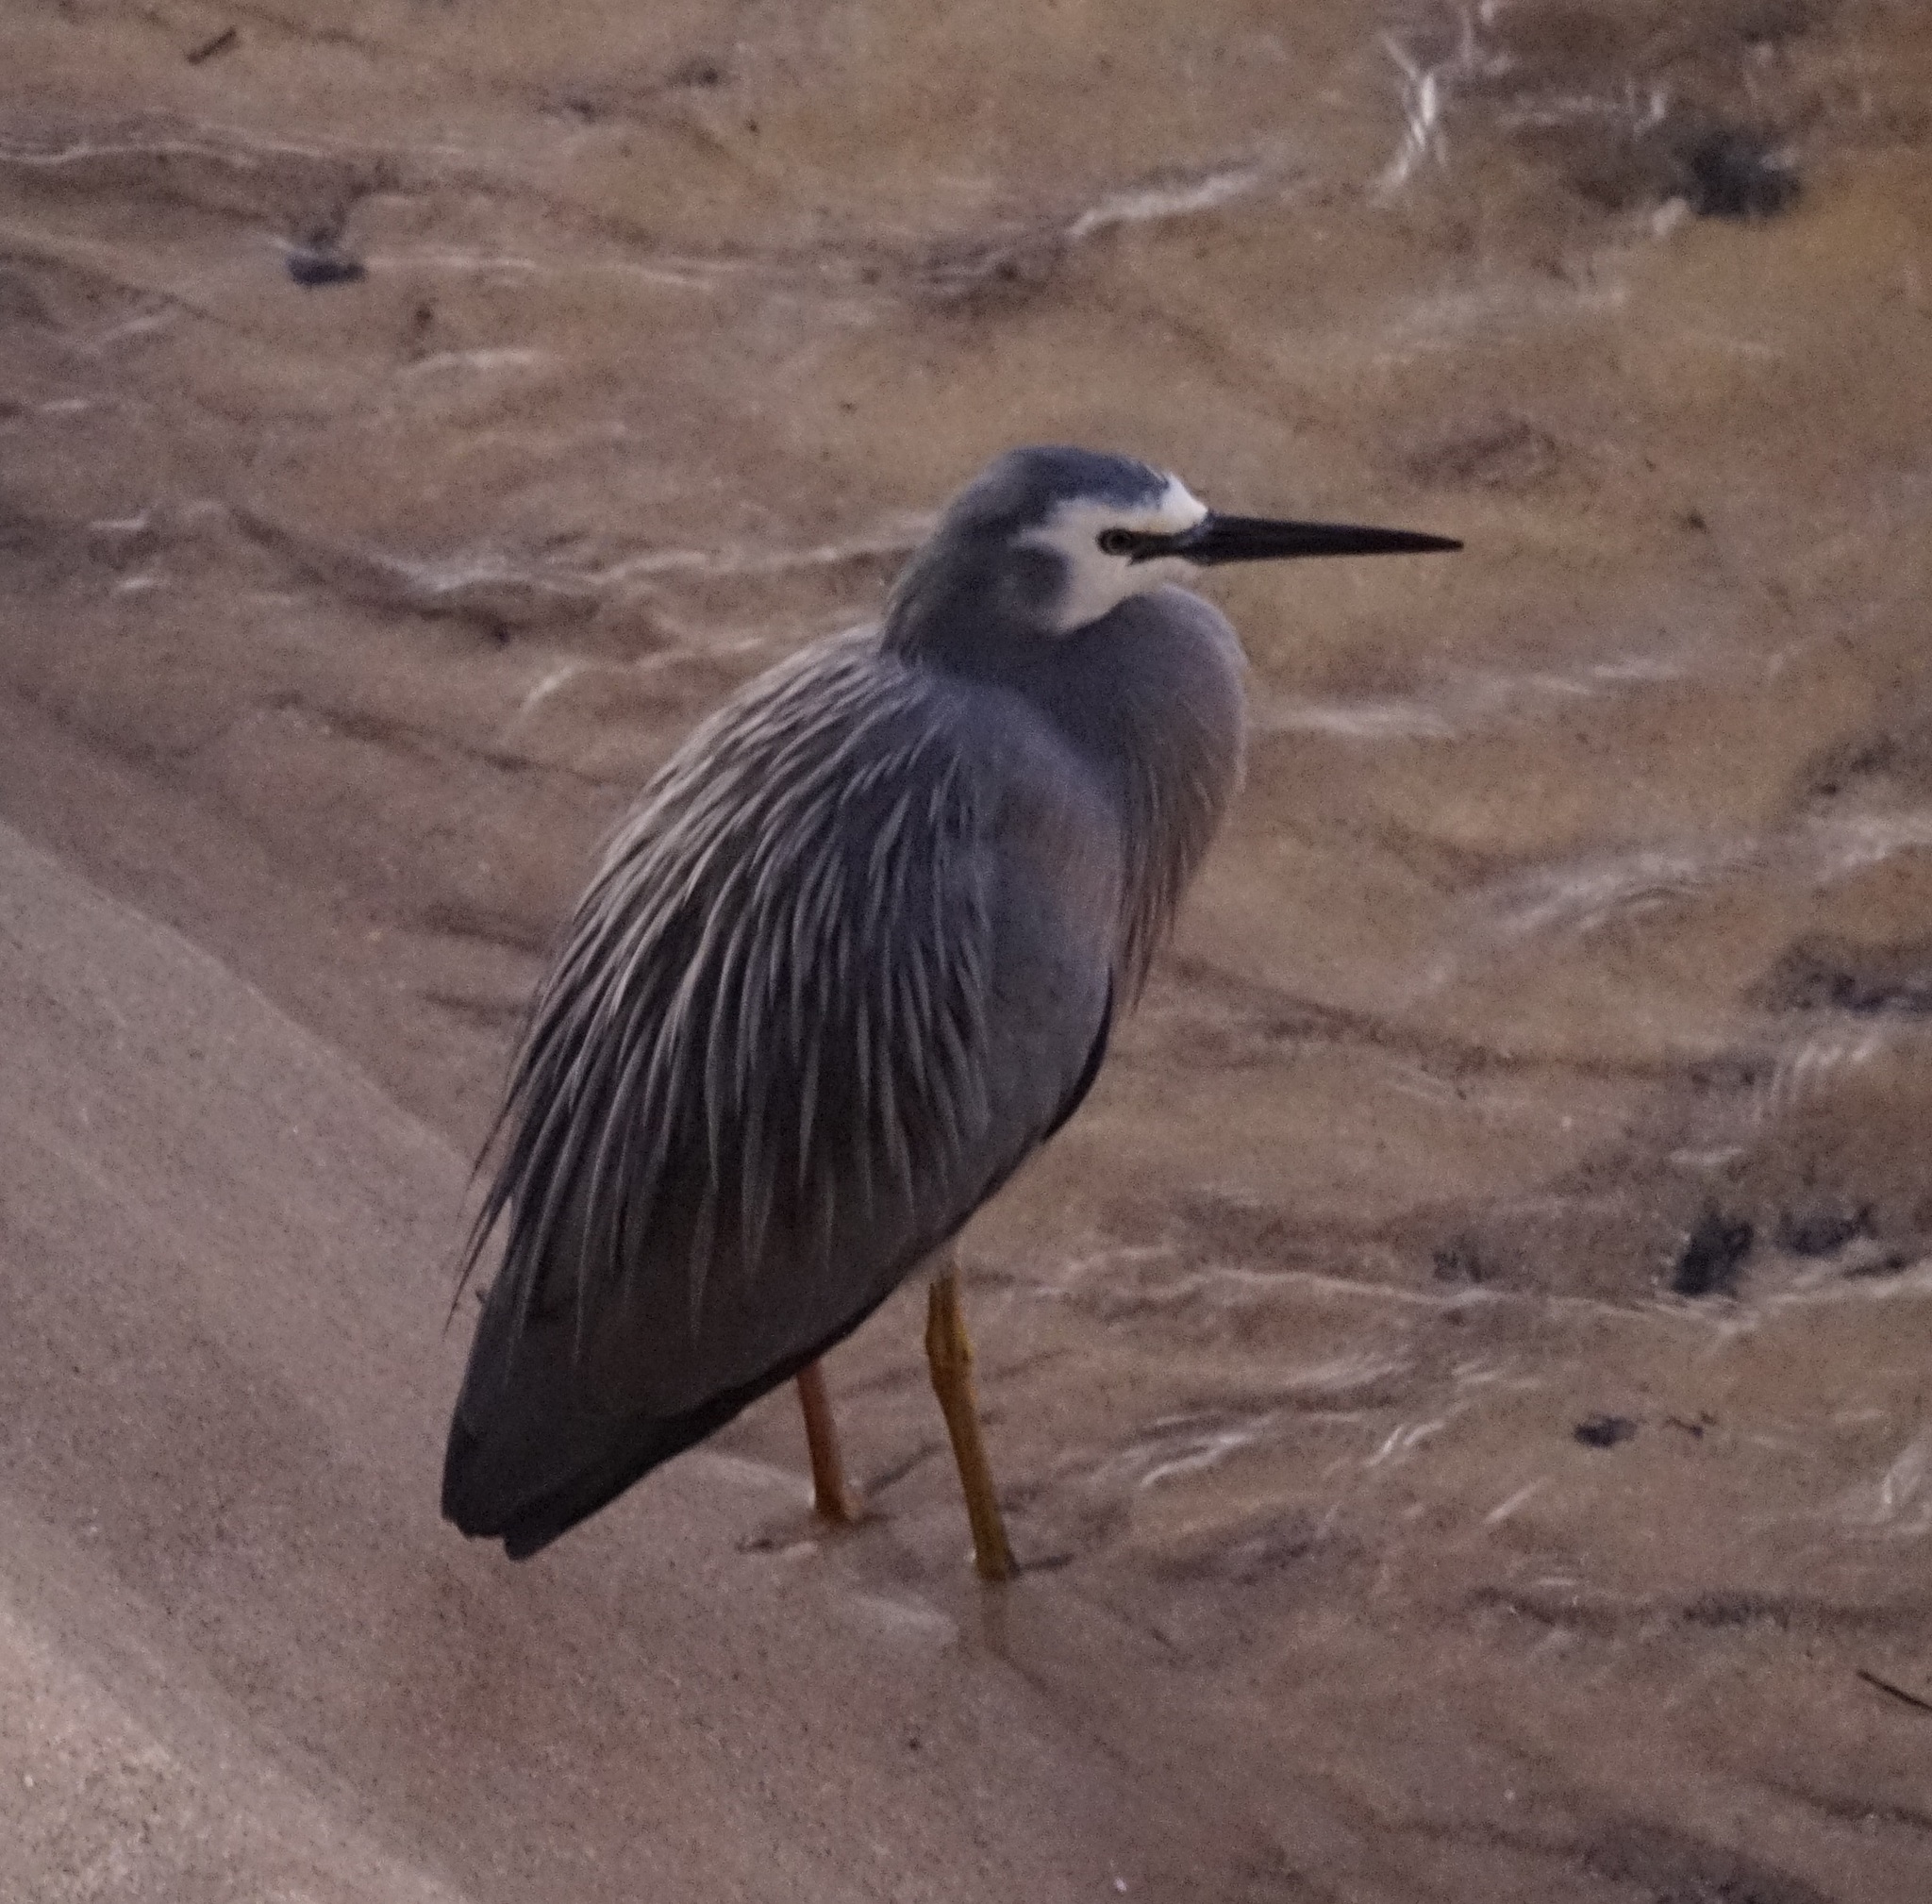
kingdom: Animalia
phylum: Chordata
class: Aves
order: Pelecaniformes
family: Ardeidae
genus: Egretta
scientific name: Egretta novaehollandiae
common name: White-faced heron
